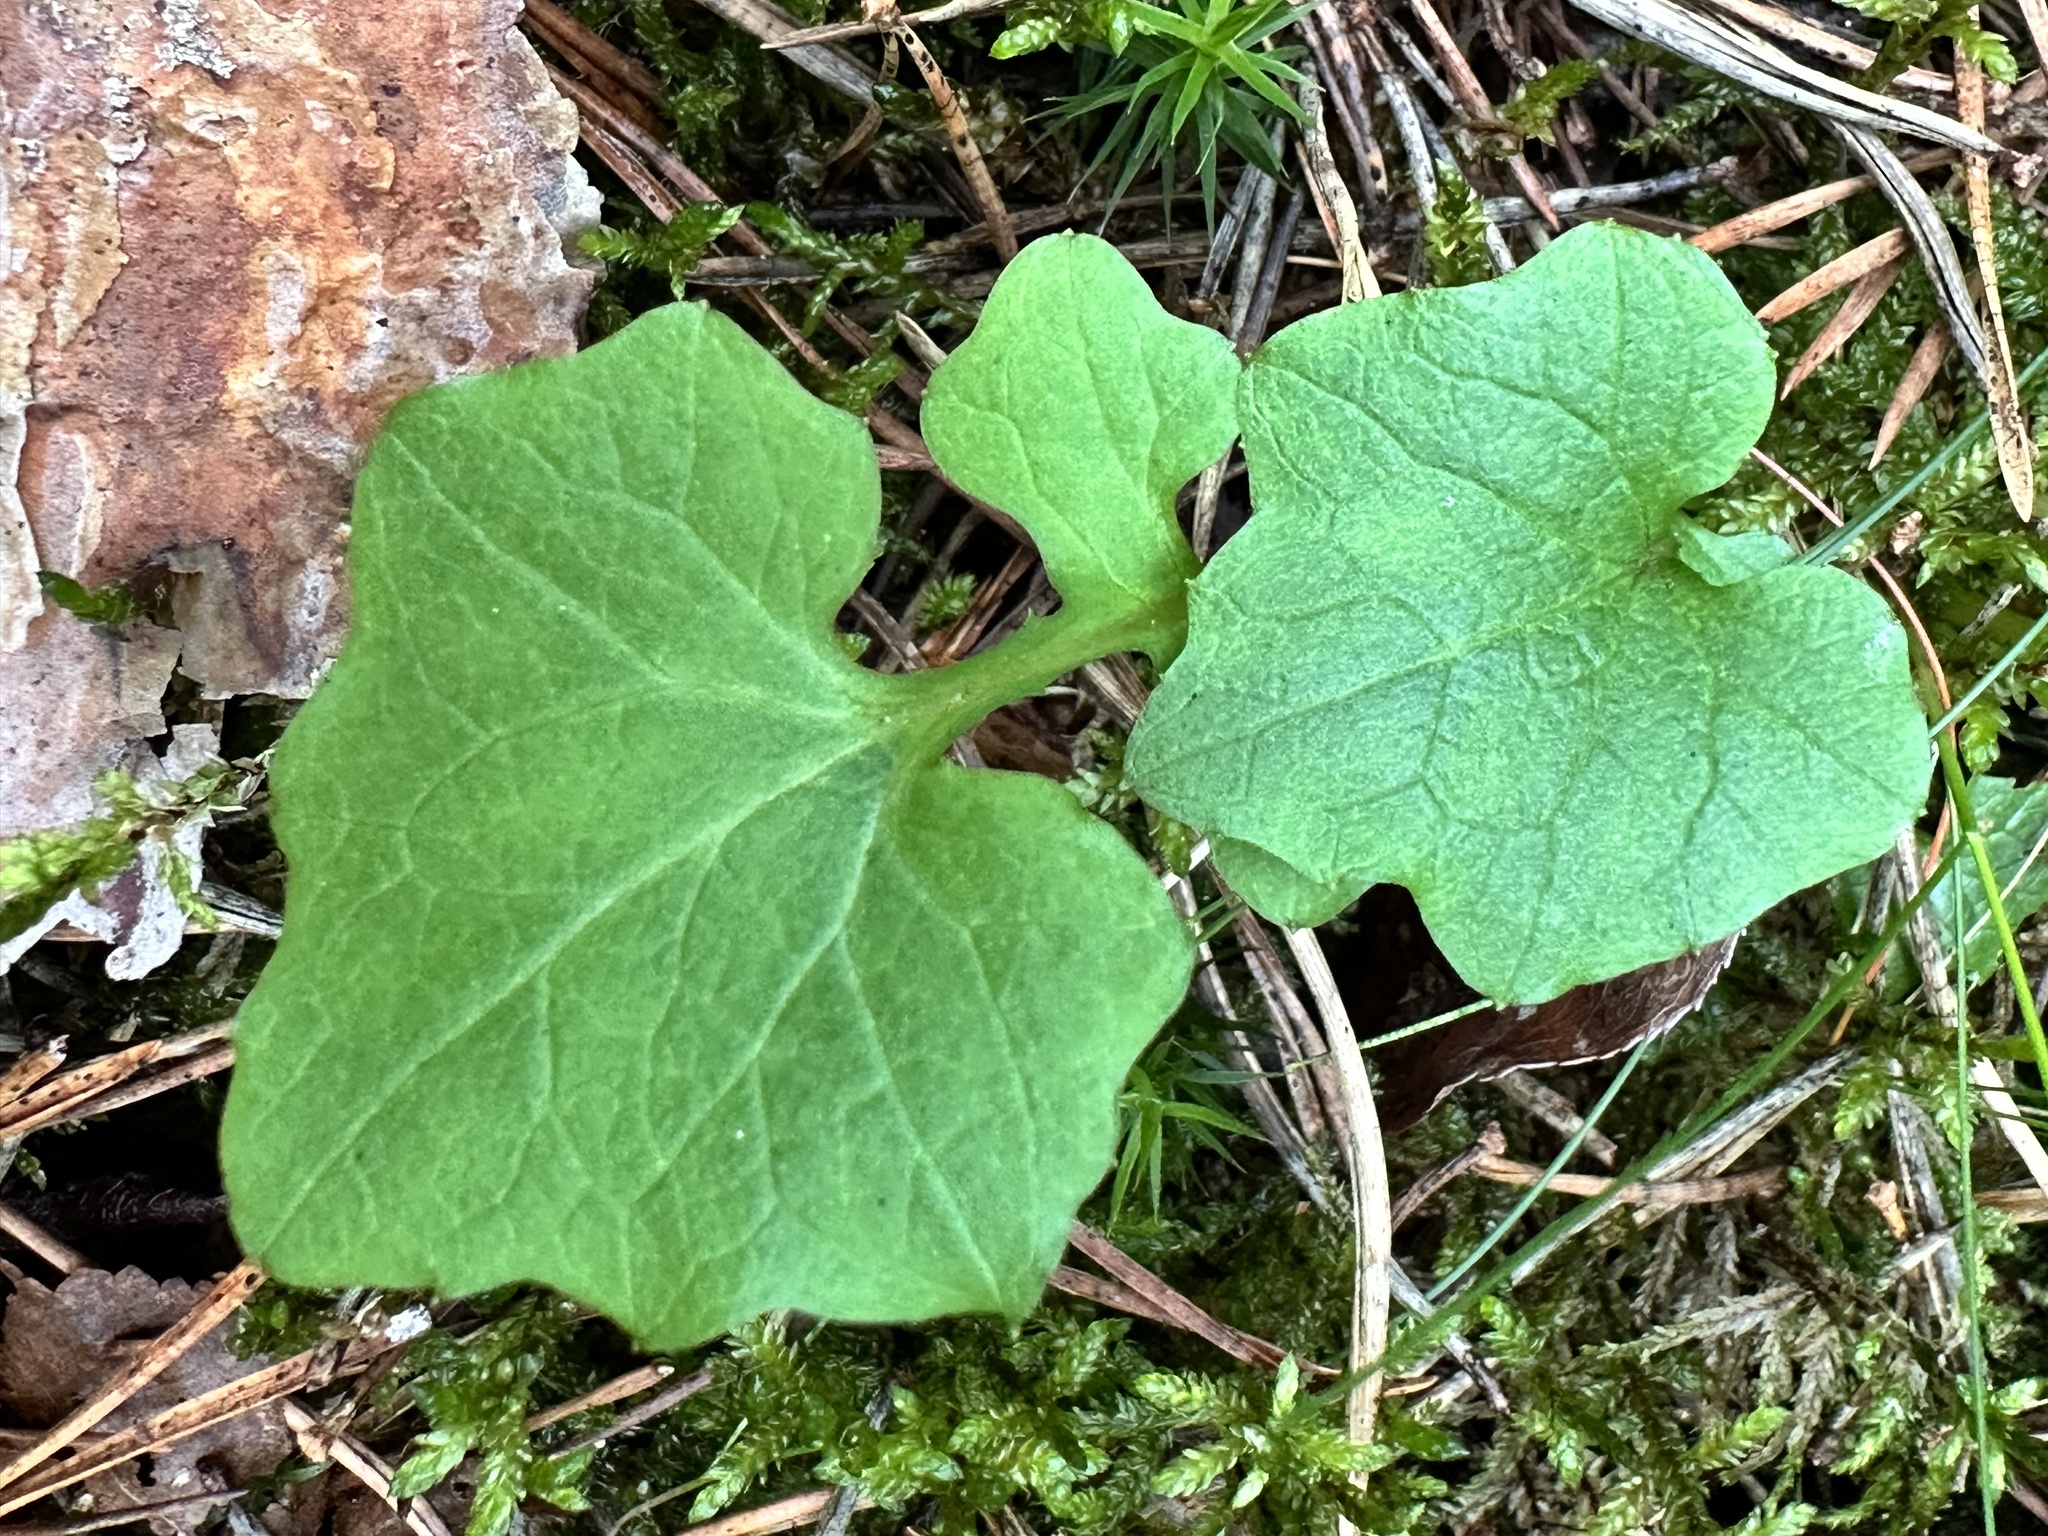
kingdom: Plantae
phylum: Tracheophyta
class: Magnoliopsida
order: Asterales
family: Asteraceae
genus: Mycelis
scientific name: Mycelis muralis
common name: Wall lettuce
